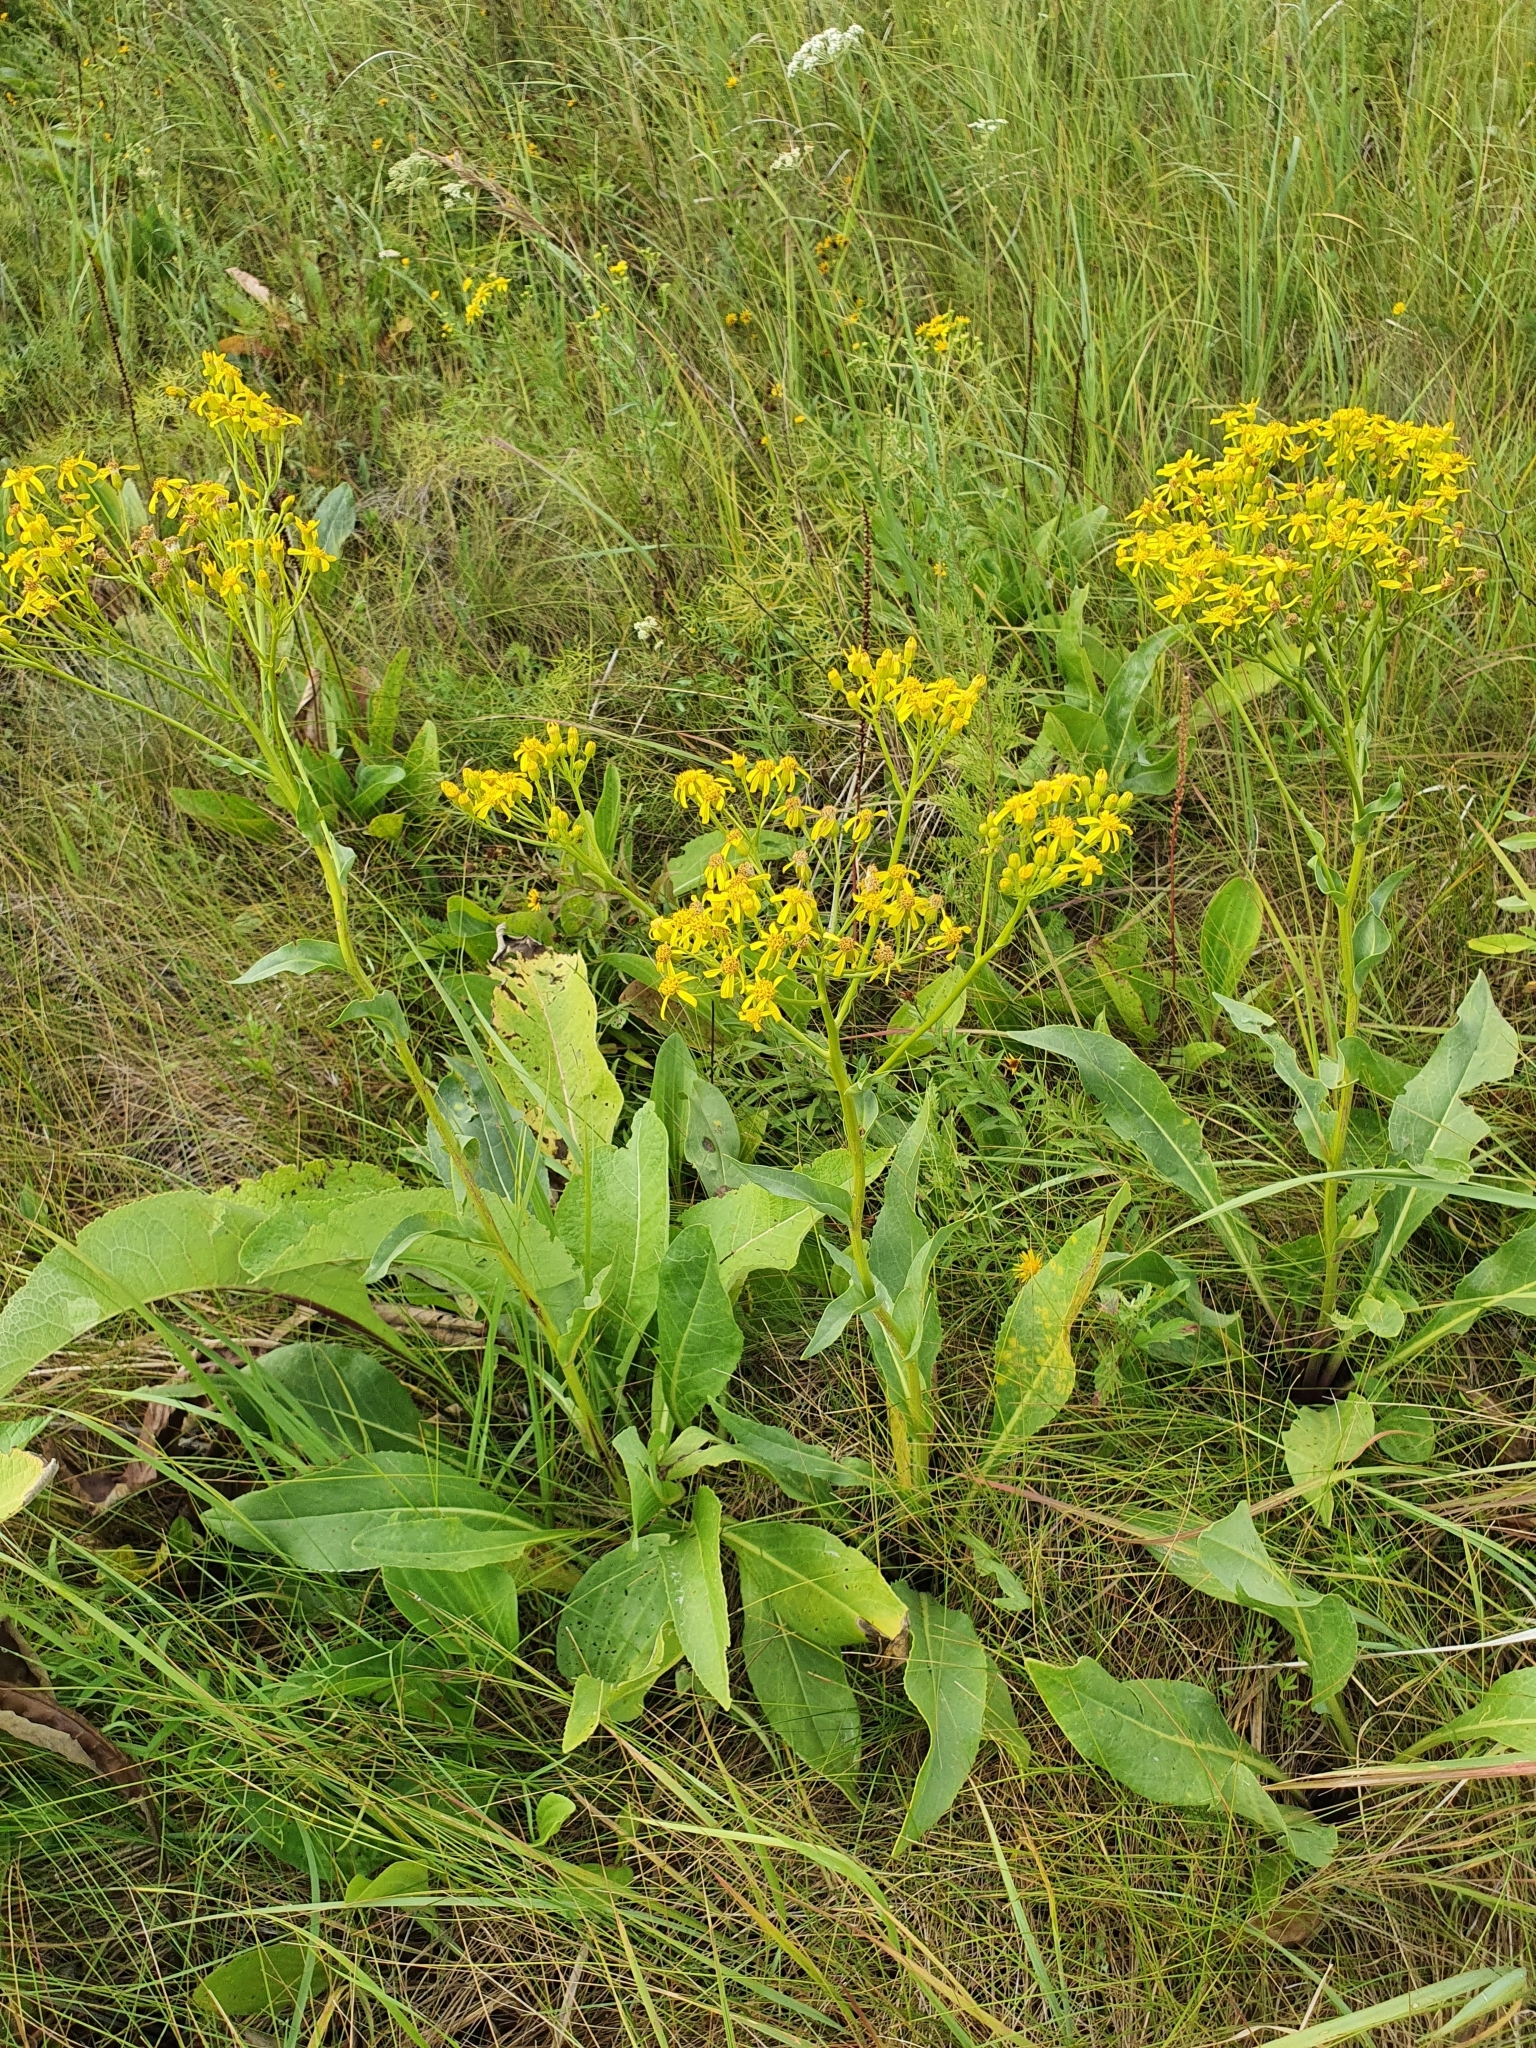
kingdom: Plantae
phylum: Tracheophyta
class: Magnoliopsida
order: Asterales
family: Asteraceae
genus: Senecio
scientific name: Senecio doria
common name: Golden ragwort
